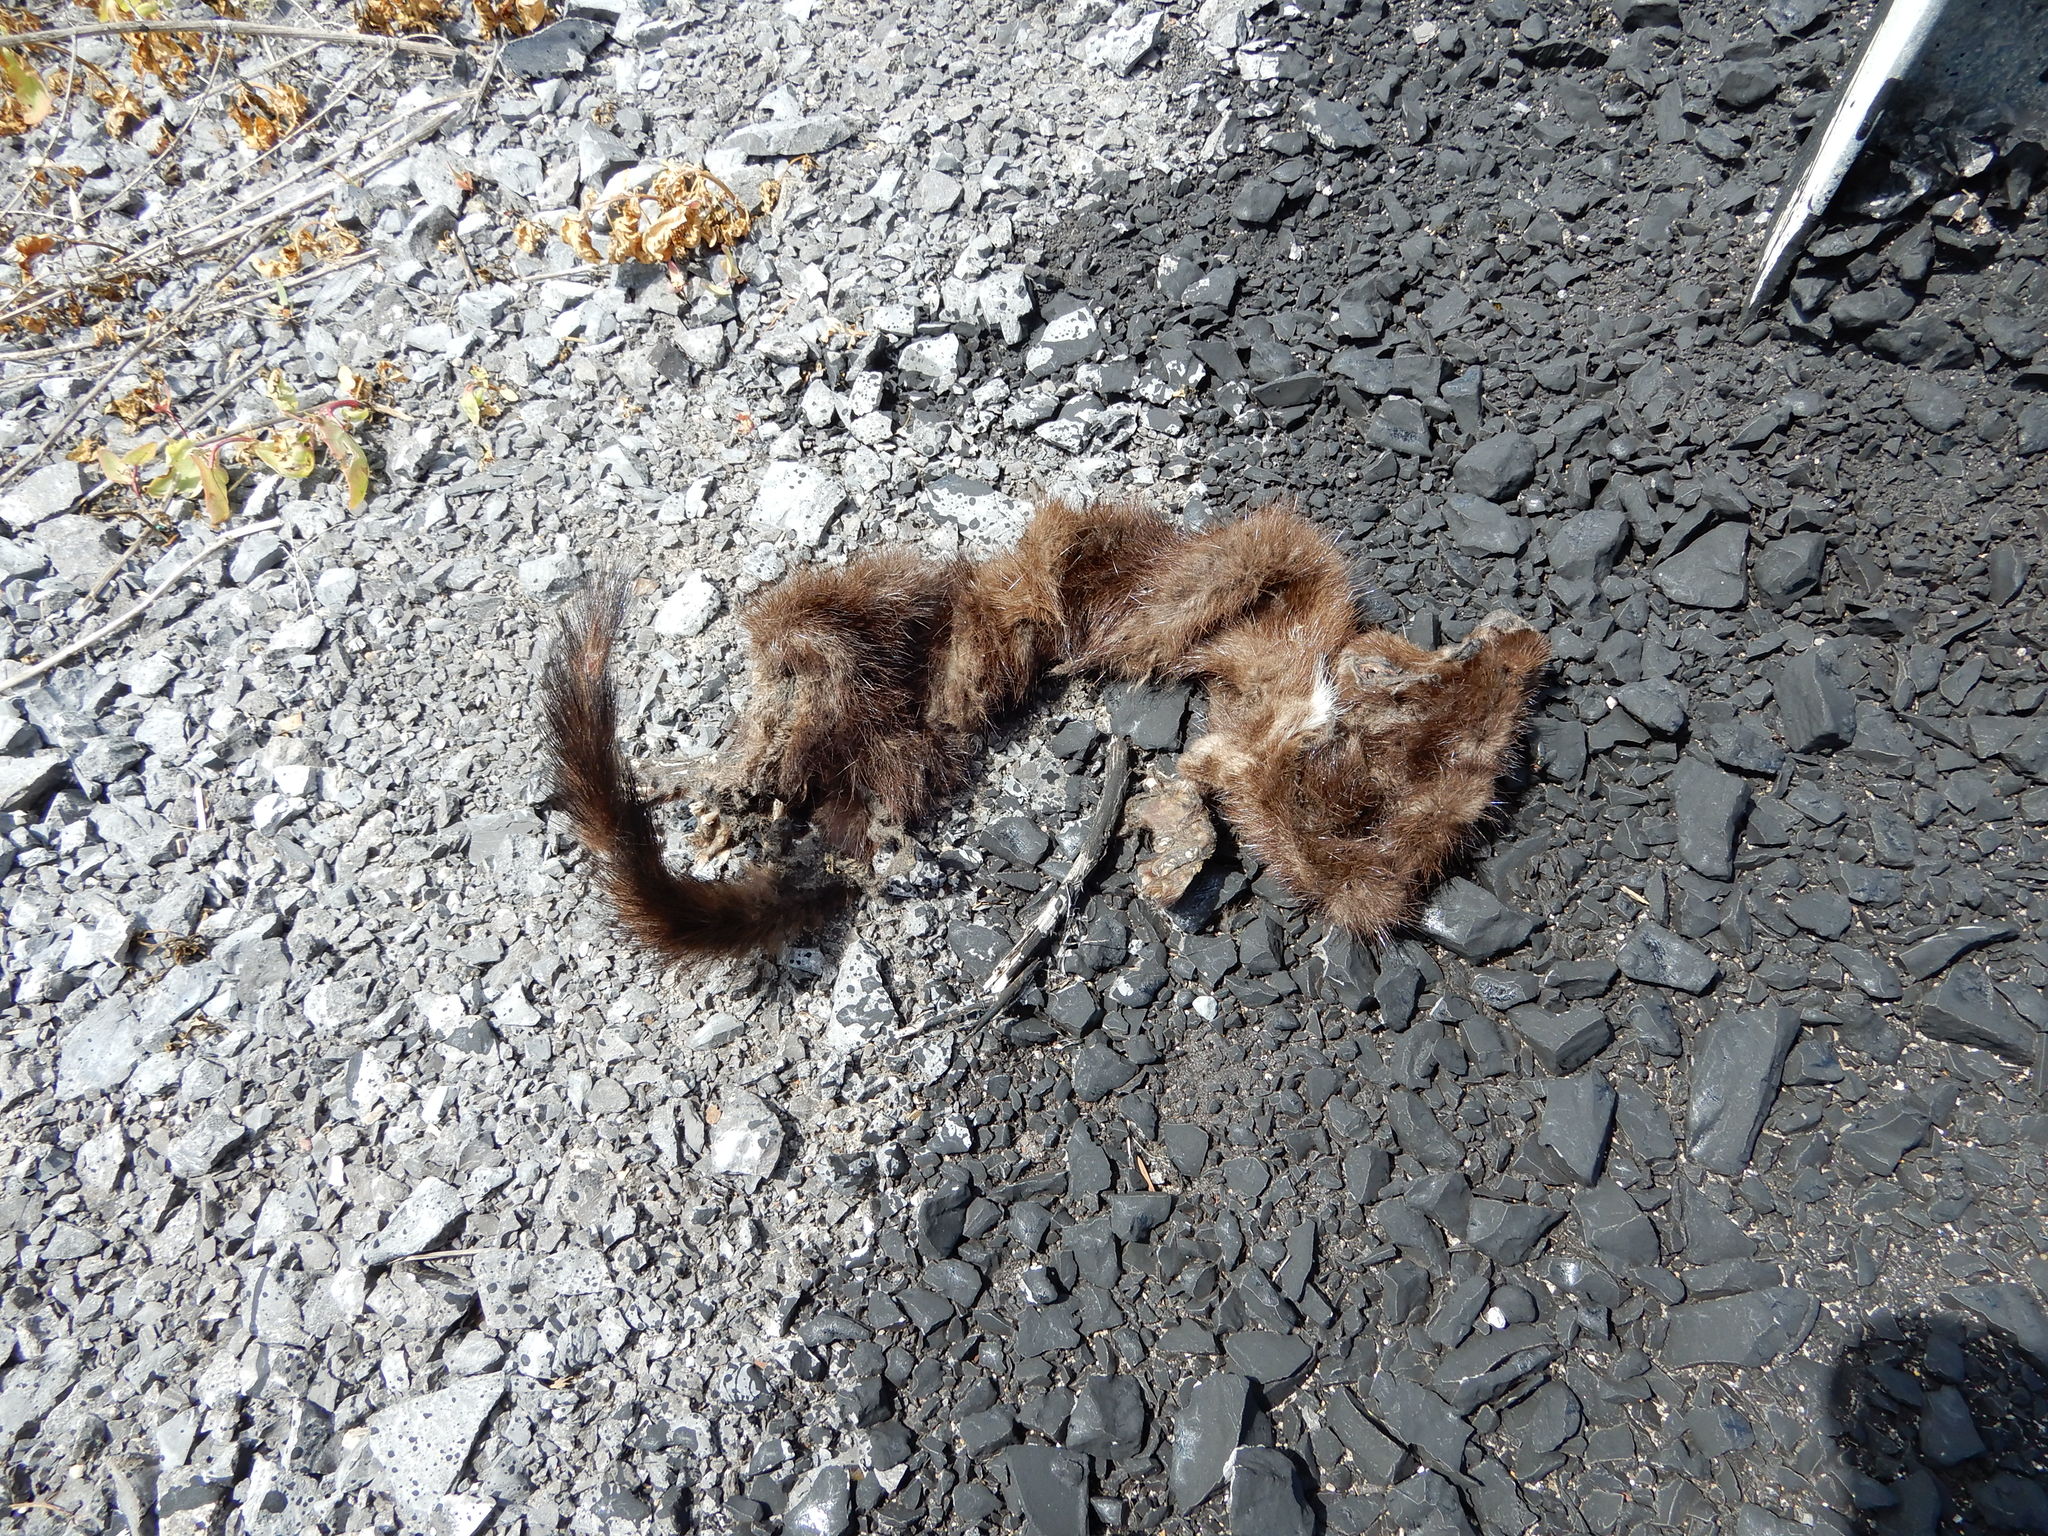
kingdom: Animalia
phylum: Chordata
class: Mammalia
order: Carnivora
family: Mustelidae
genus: Mustela
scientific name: Mustela
